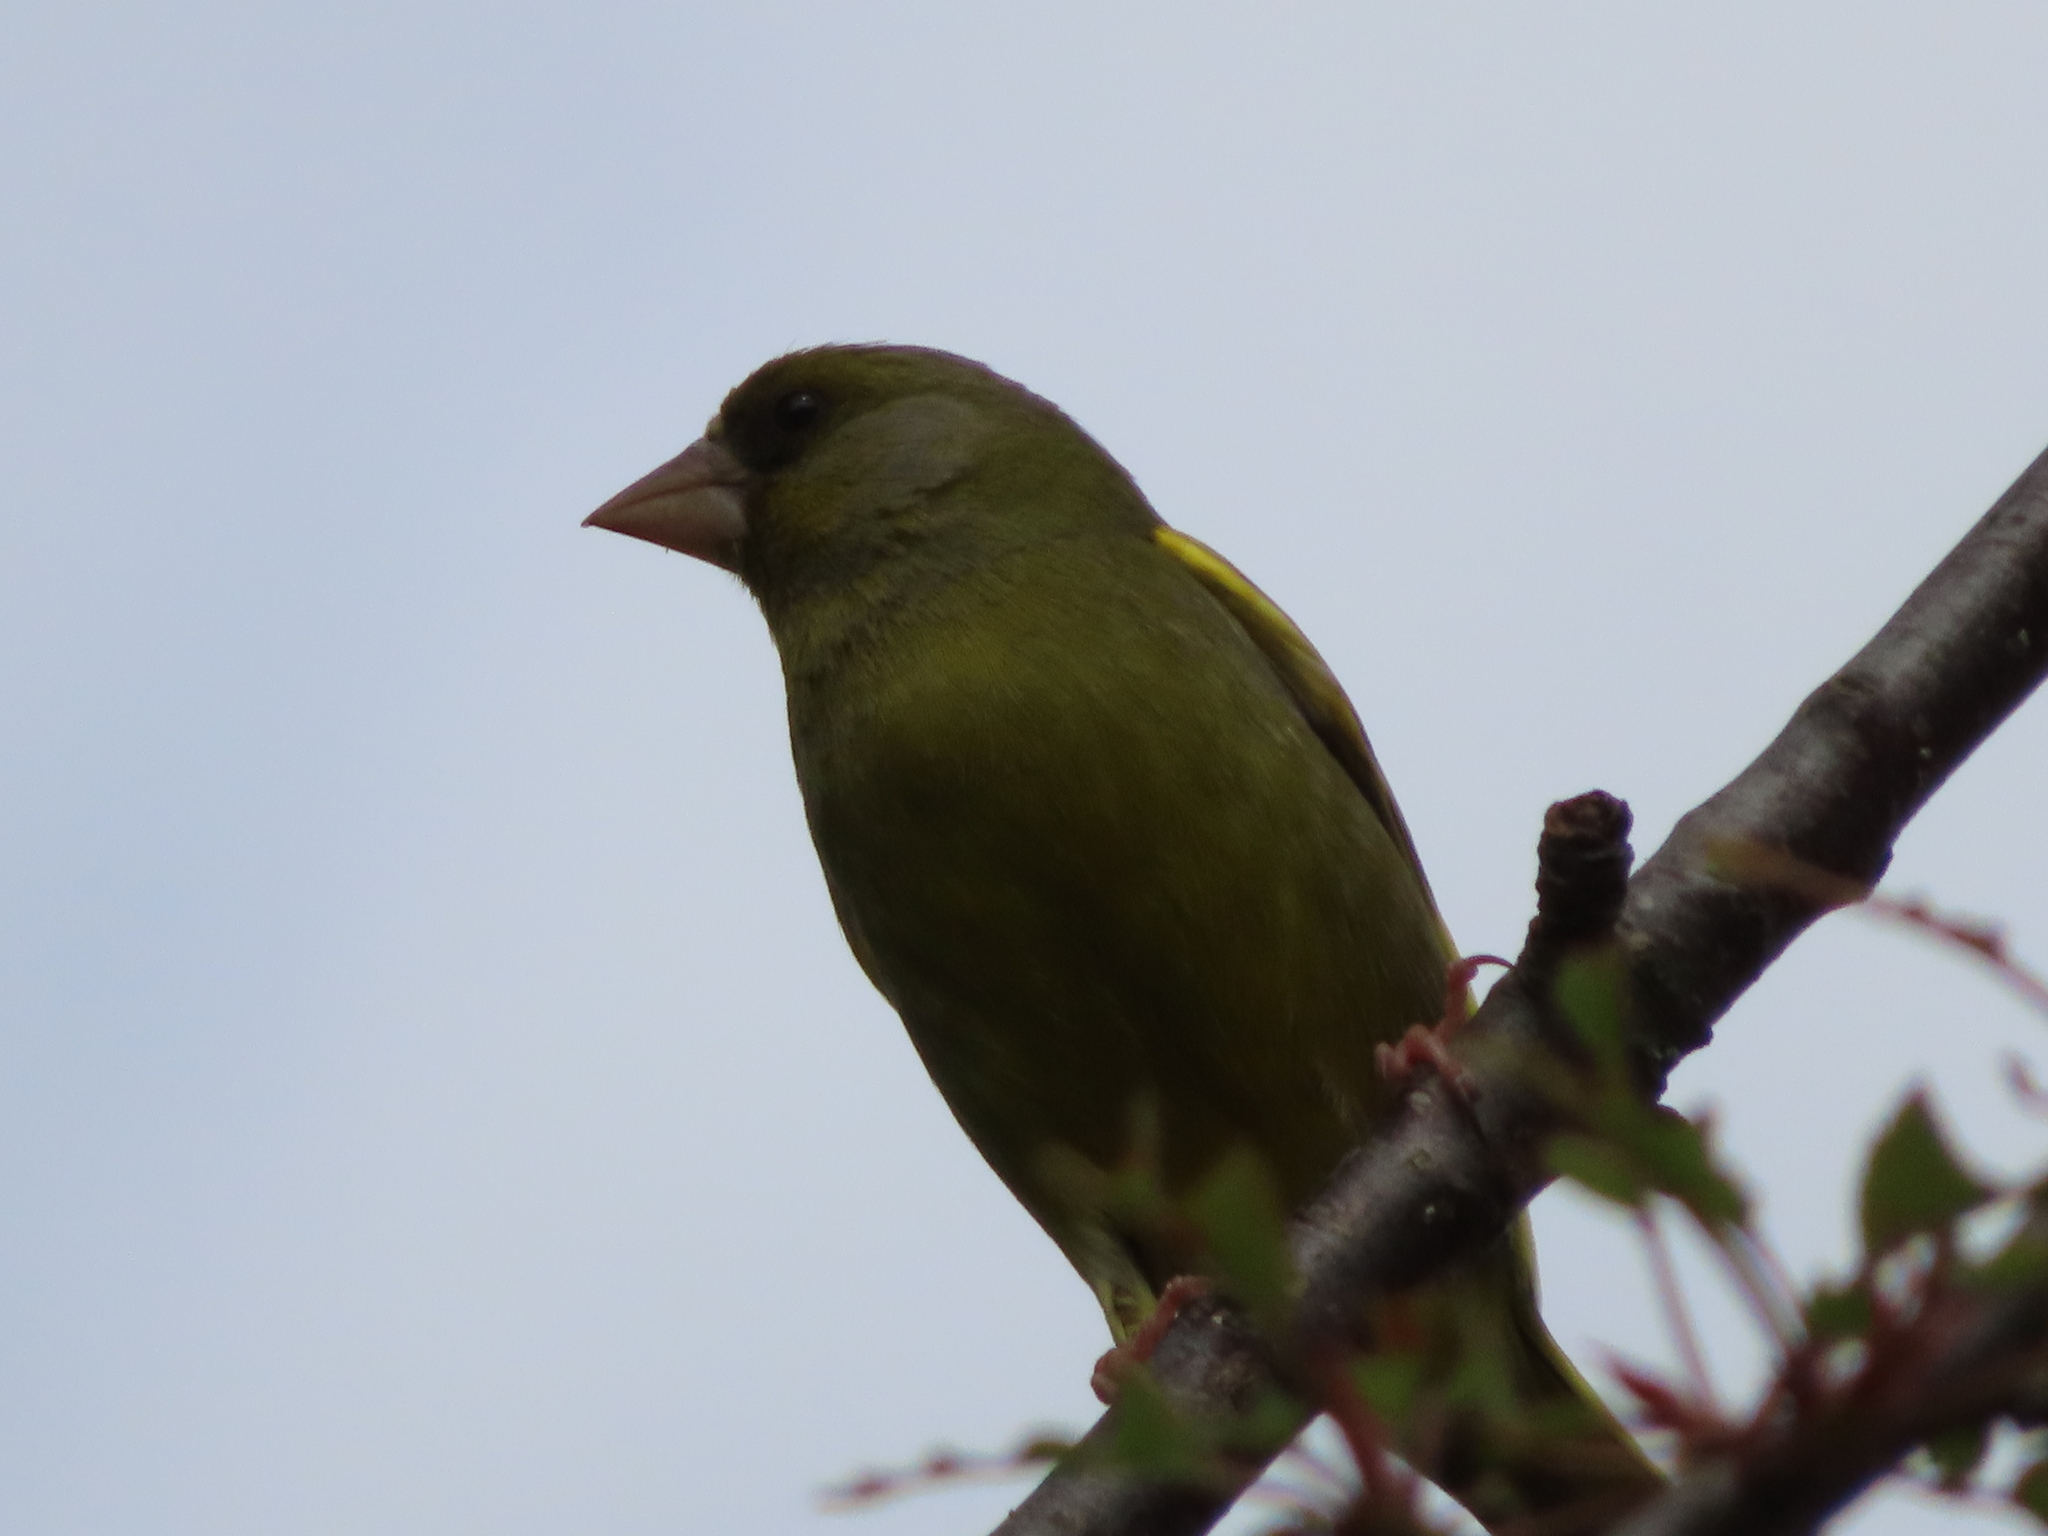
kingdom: Plantae
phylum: Tracheophyta
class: Liliopsida
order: Poales
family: Poaceae
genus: Chloris
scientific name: Chloris chloris
